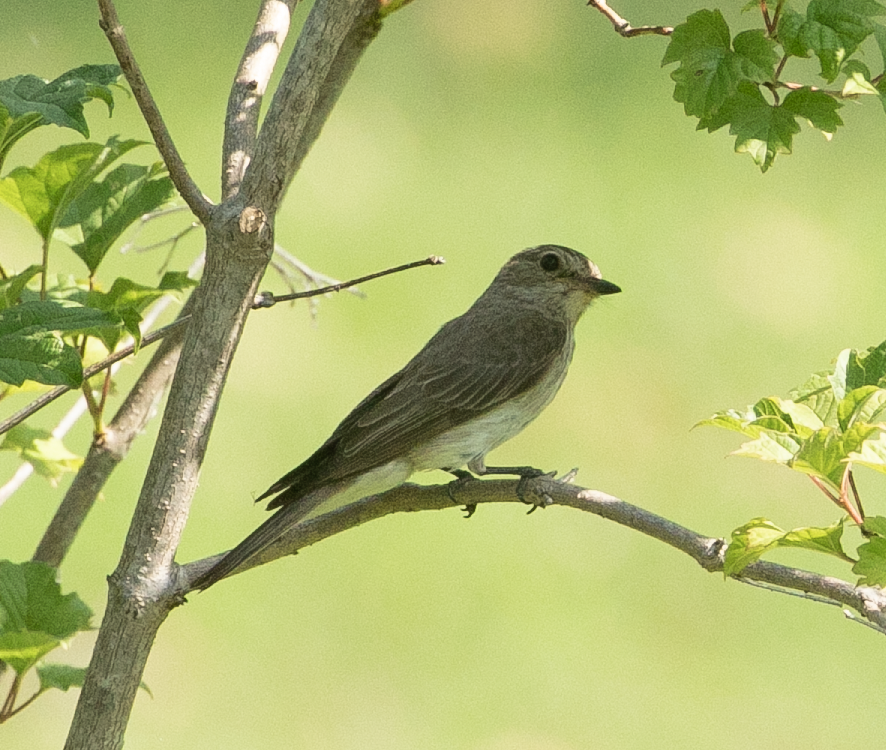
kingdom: Animalia
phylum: Chordata
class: Aves
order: Passeriformes
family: Muscicapidae
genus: Muscicapa
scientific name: Muscicapa striata
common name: Spotted flycatcher
